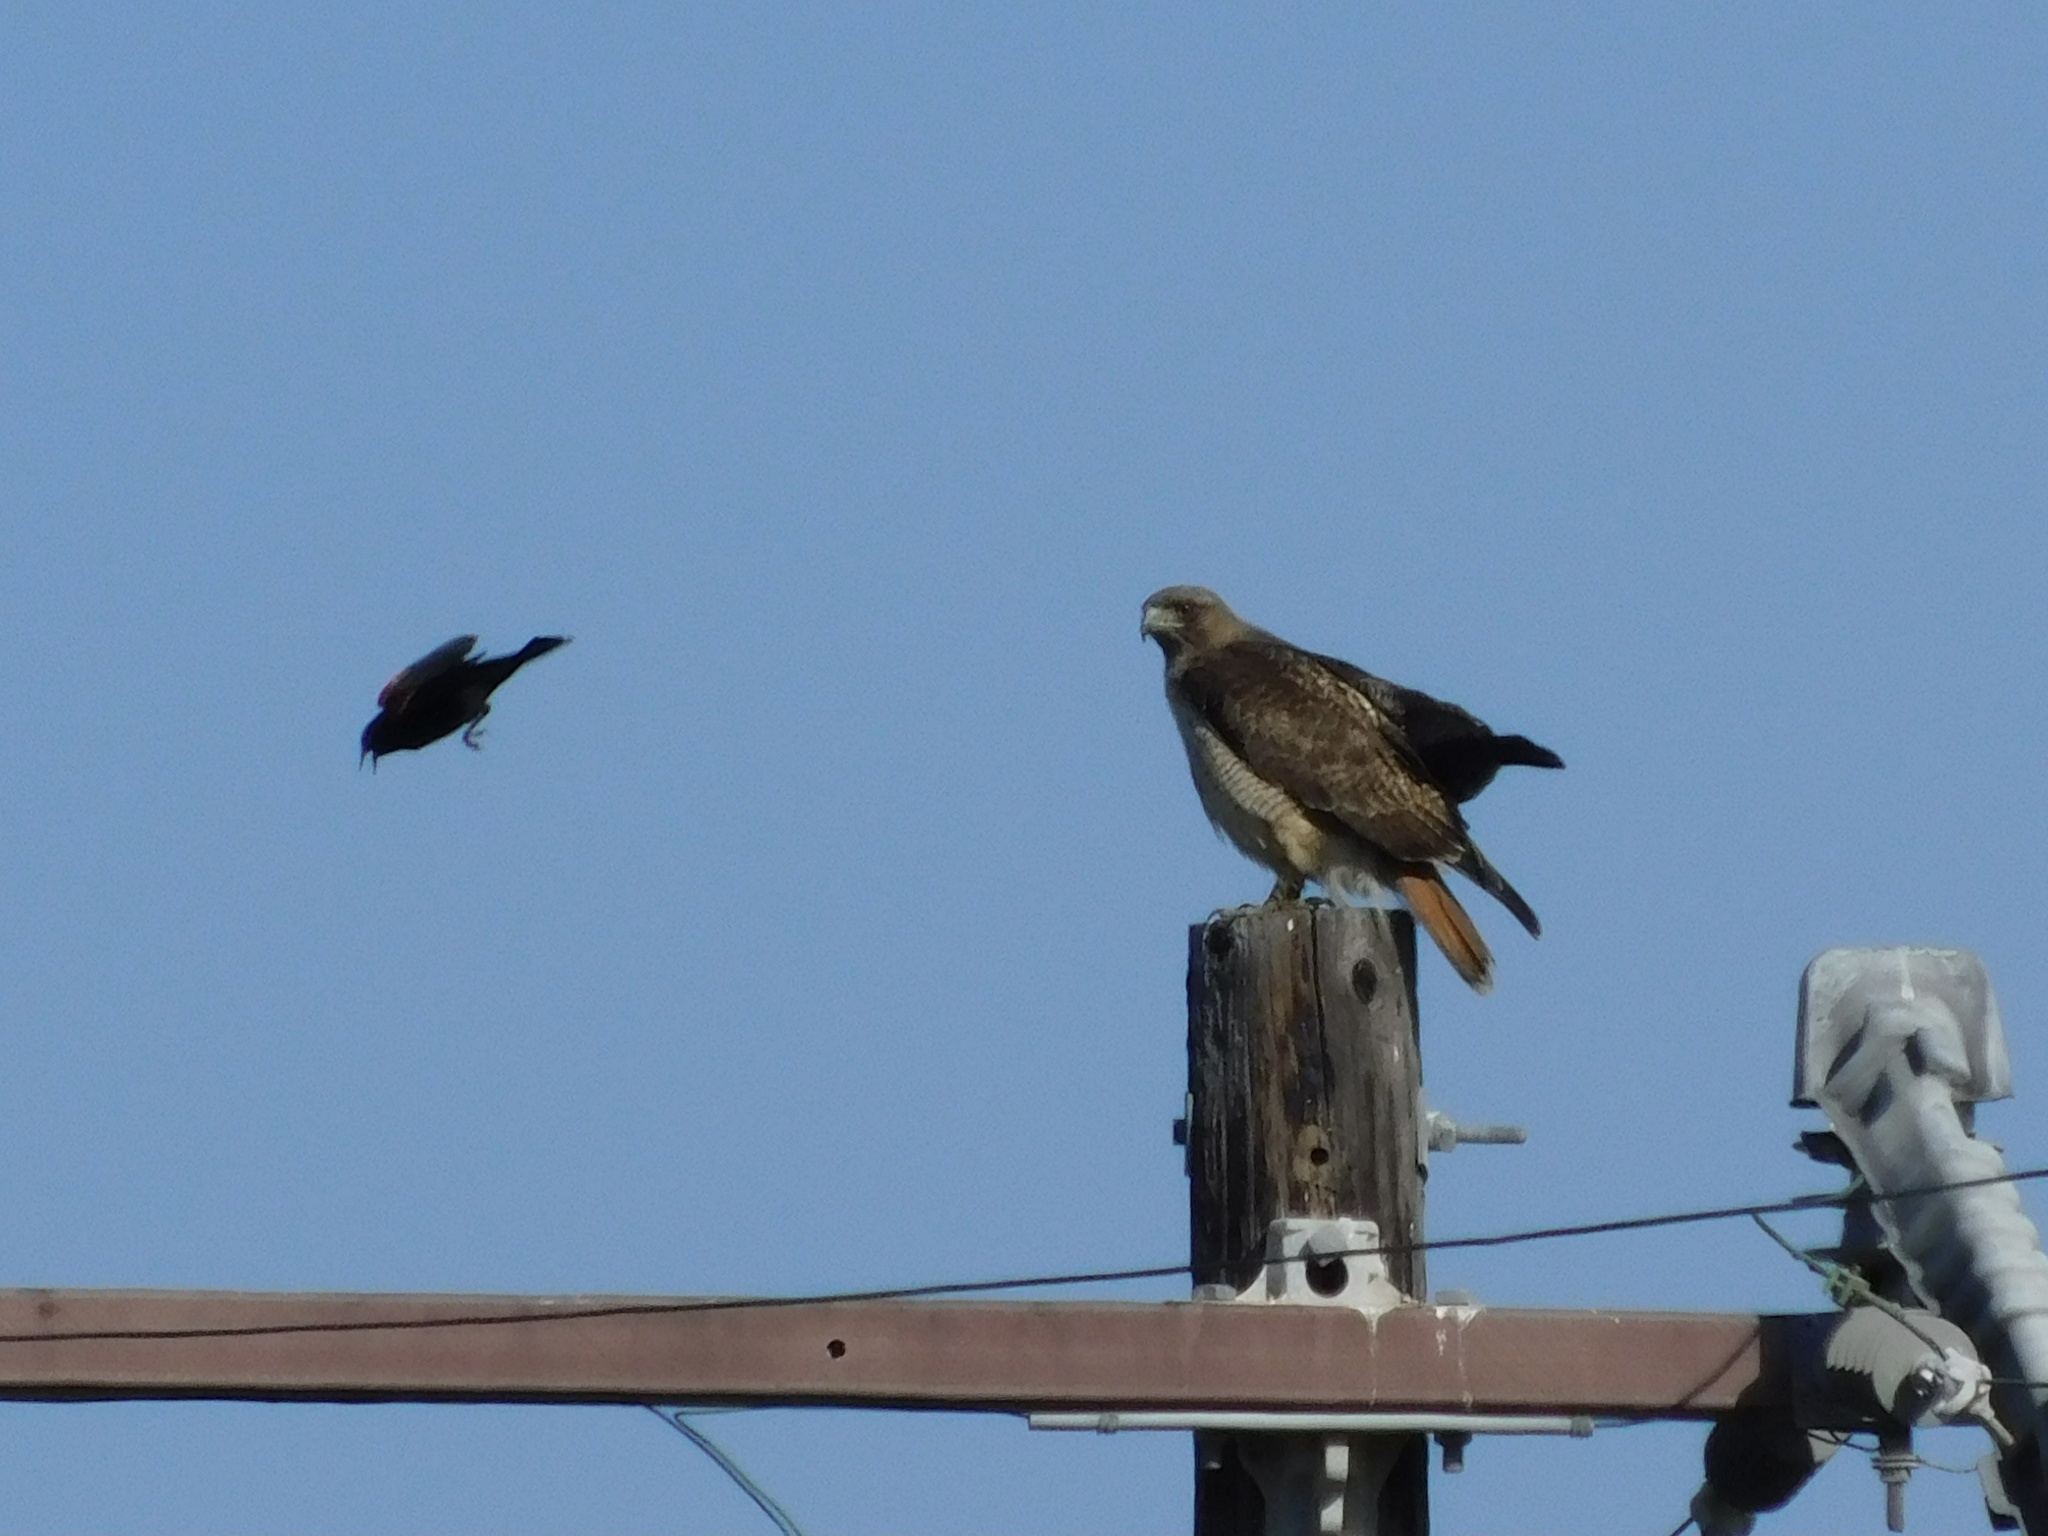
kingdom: Animalia
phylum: Chordata
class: Aves
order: Accipitriformes
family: Accipitridae
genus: Buteo
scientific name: Buteo jamaicensis
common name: Red-tailed hawk
